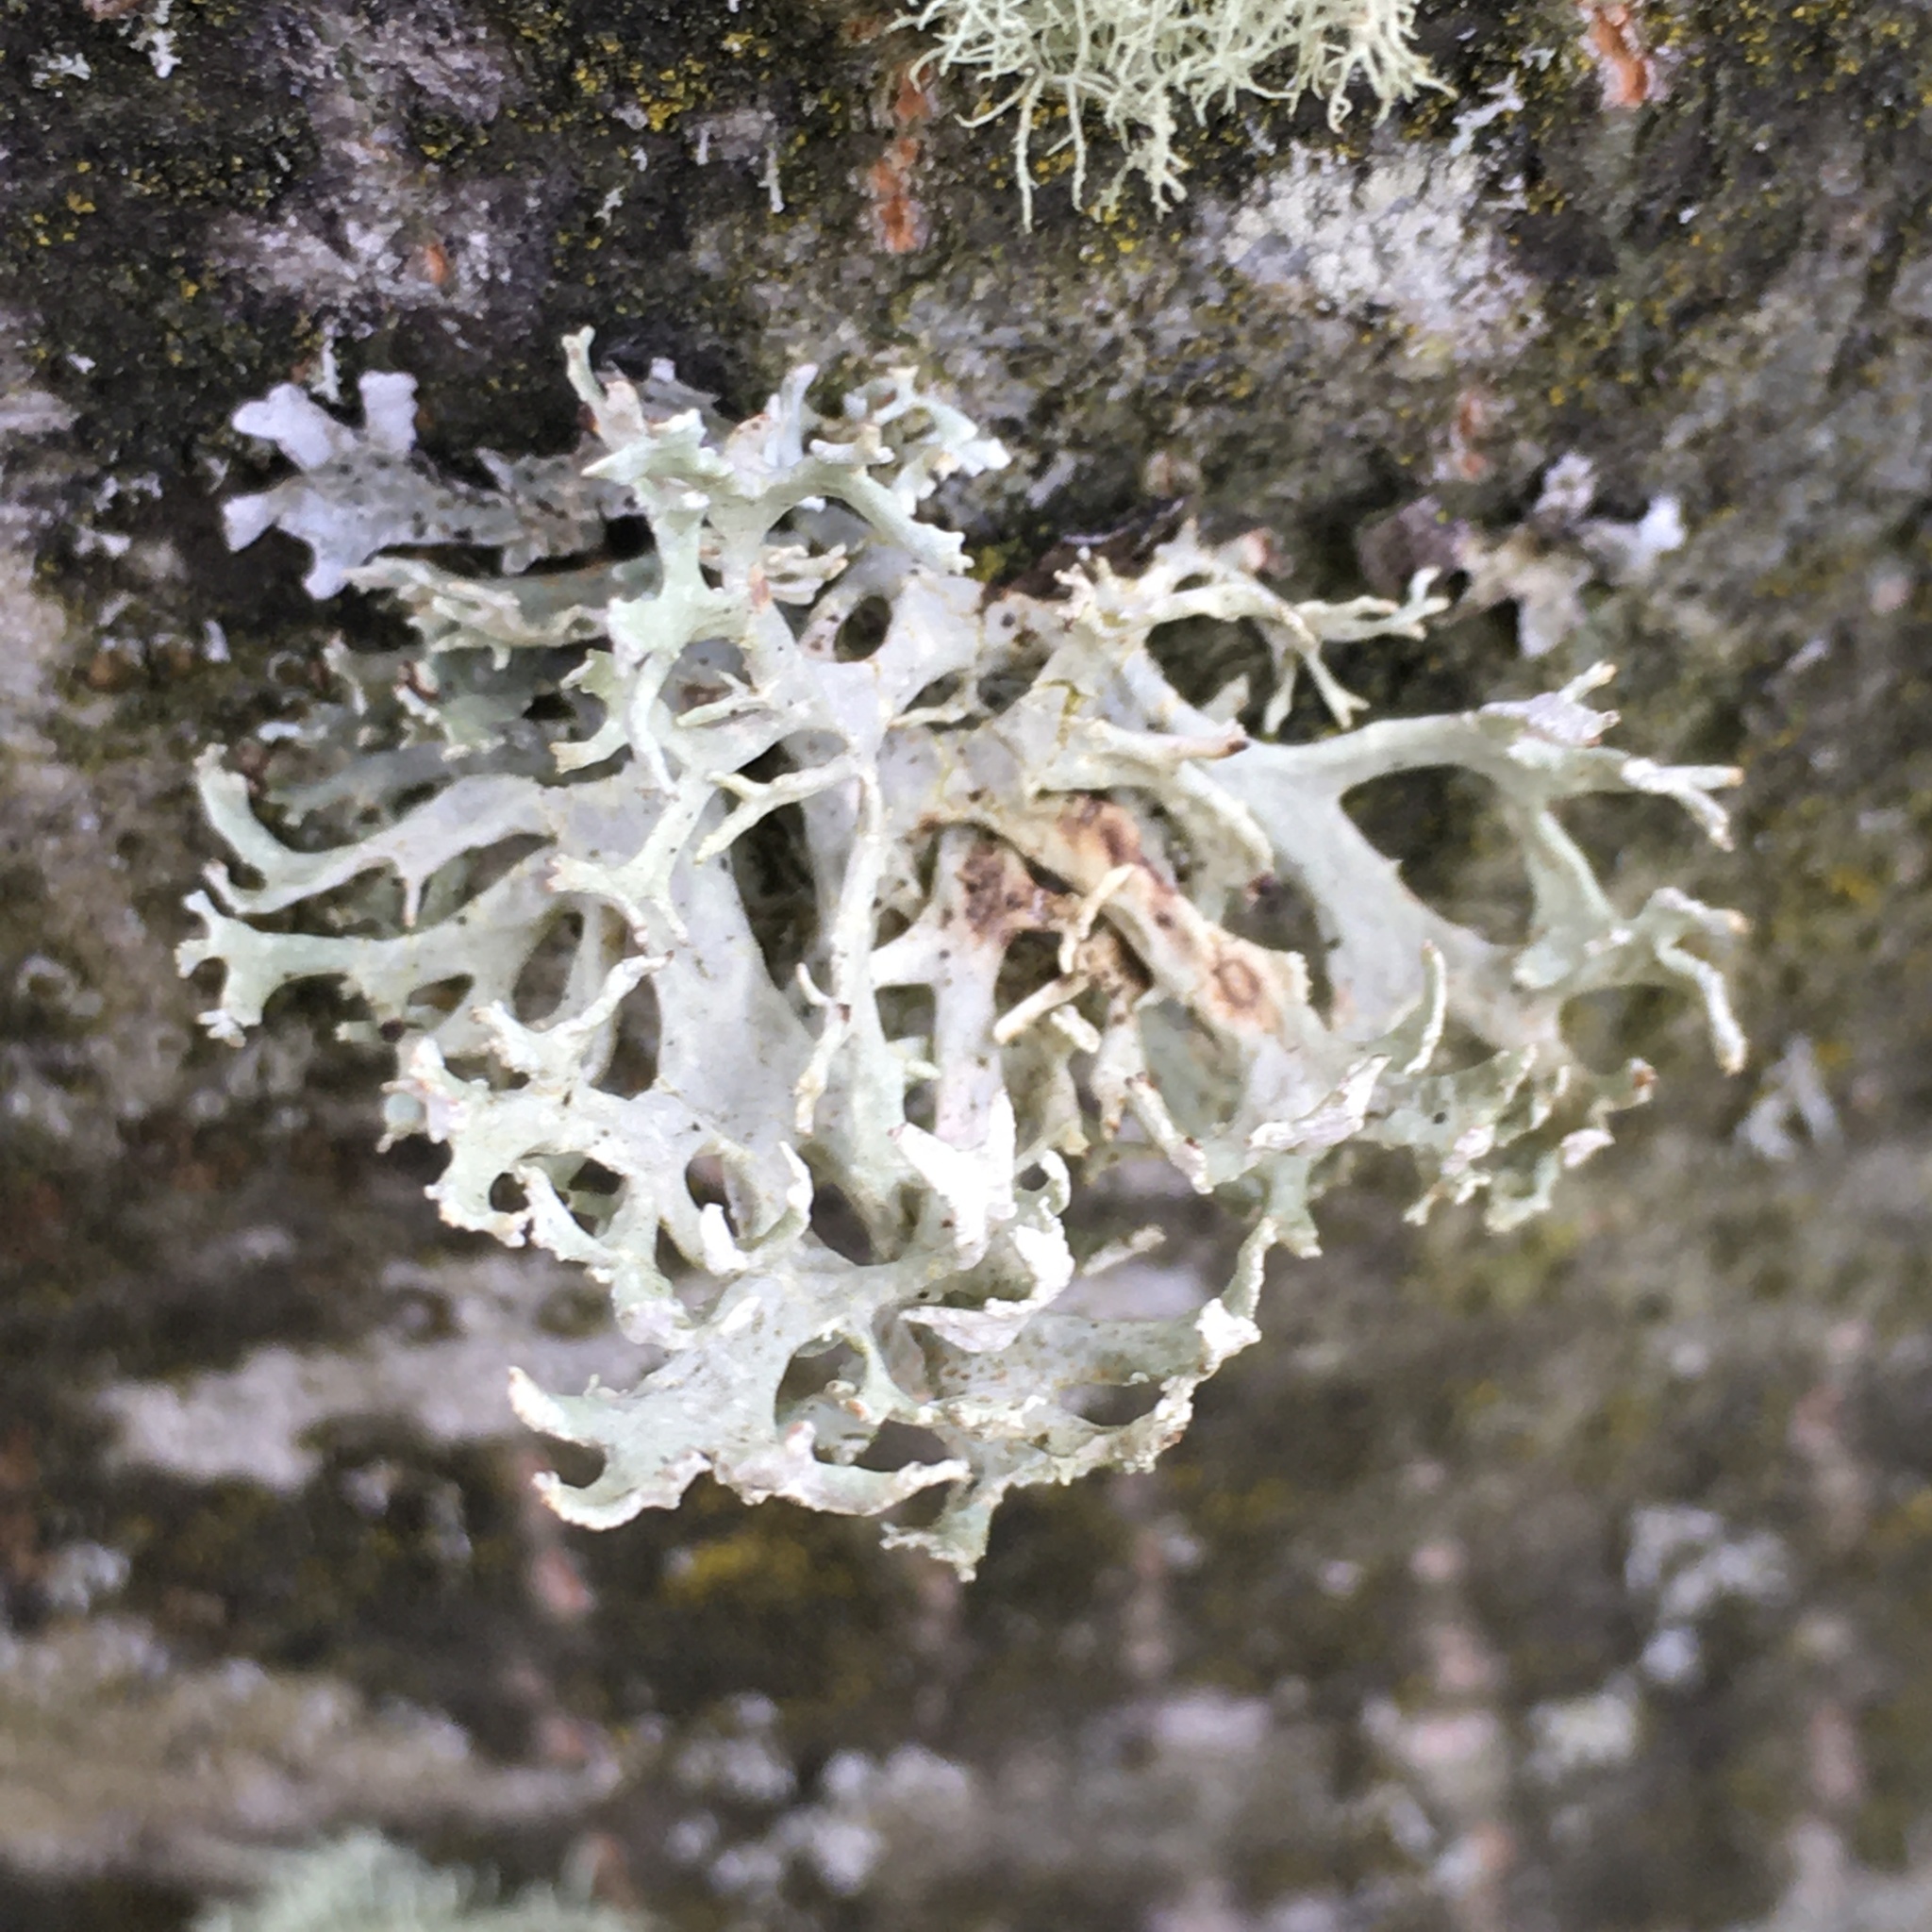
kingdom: Fungi
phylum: Ascomycota
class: Lecanoromycetes
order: Lecanorales
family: Parmeliaceae
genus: Evernia
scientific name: Evernia prunastri
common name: Oak moss
